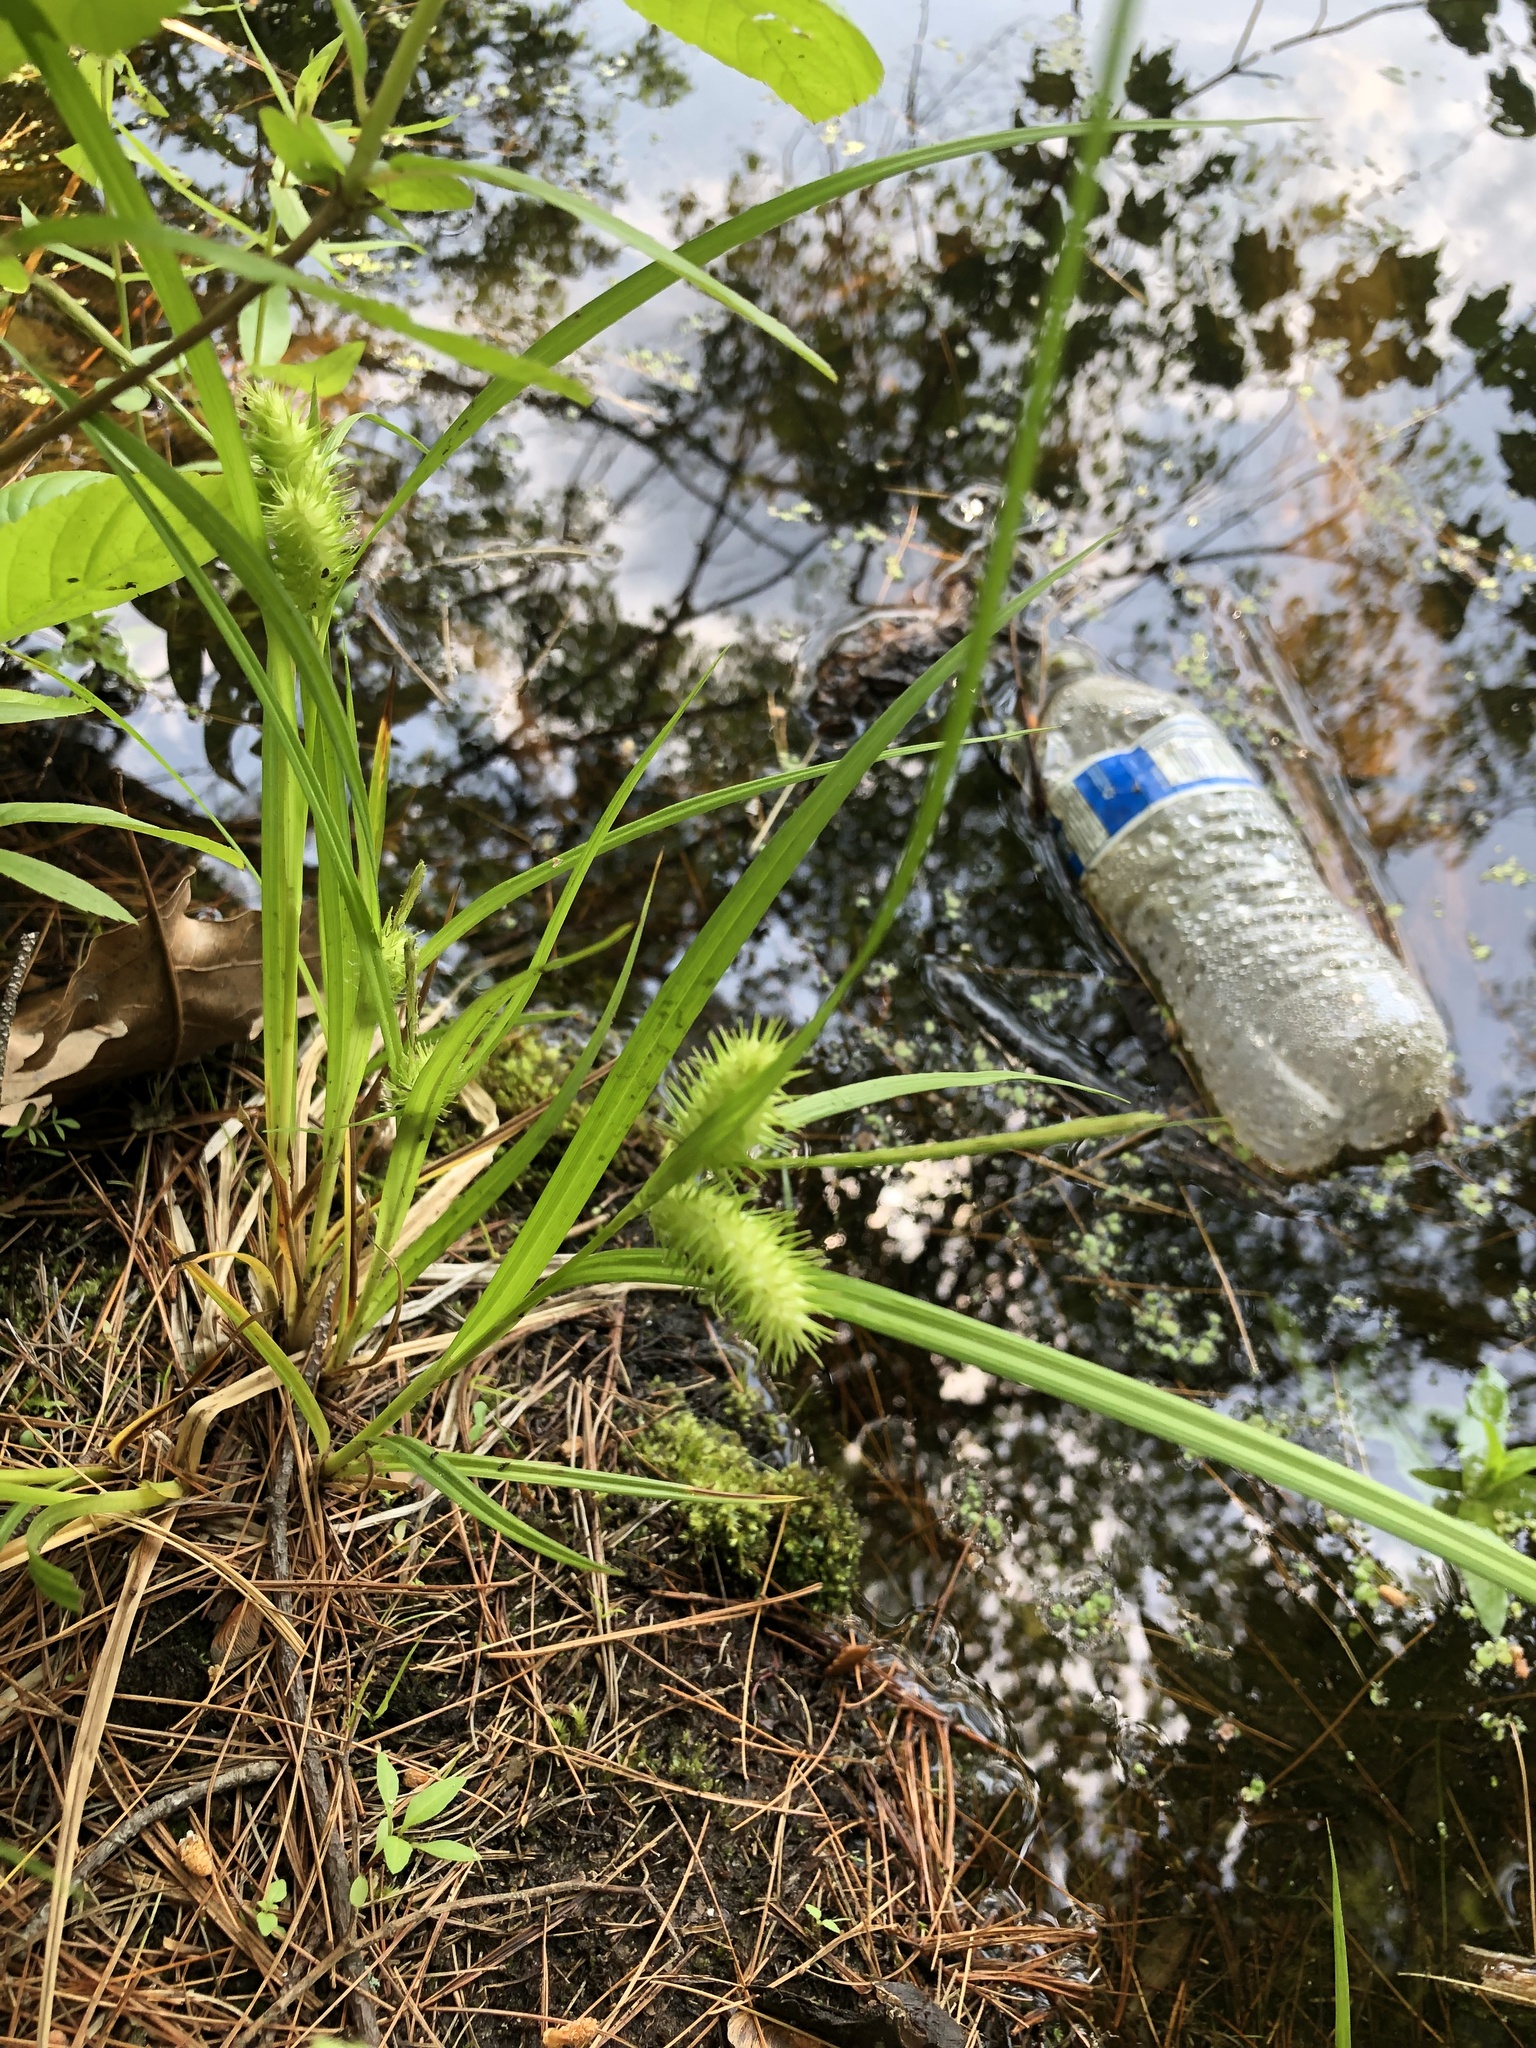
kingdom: Plantae
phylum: Tracheophyta
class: Liliopsida
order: Poales
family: Cyperaceae
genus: Carex
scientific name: Carex lurida
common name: Sallow sedge
